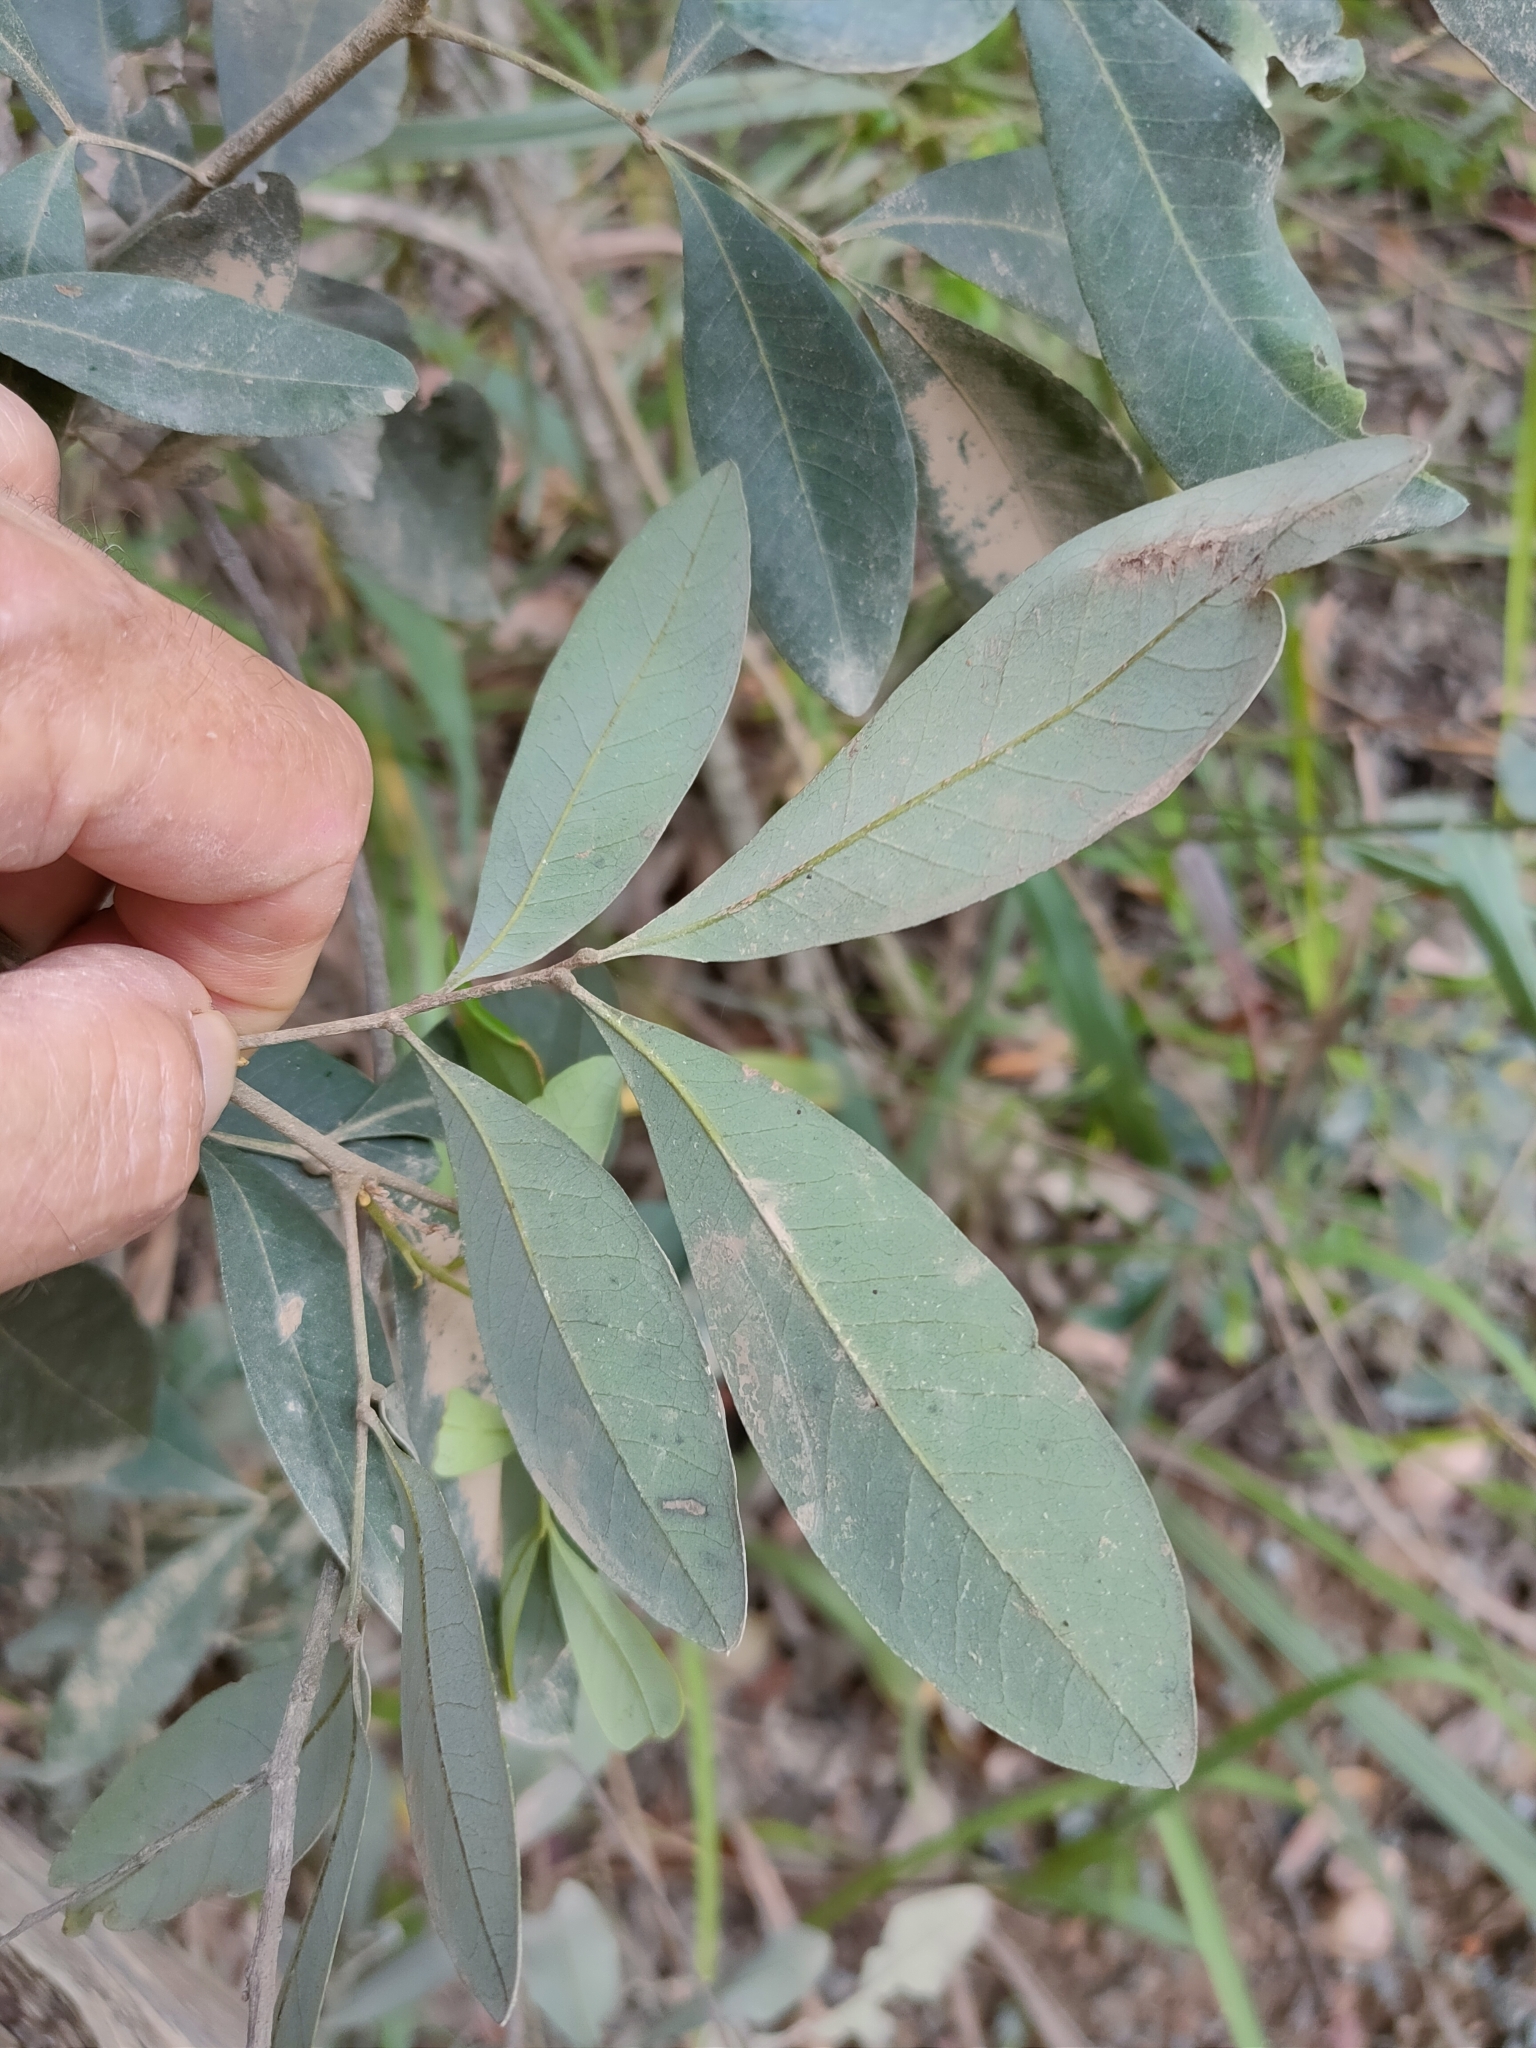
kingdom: Plantae
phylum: Tracheophyta
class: Magnoliopsida
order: Sapindales
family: Sapindaceae
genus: Guioa
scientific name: Guioa semiglauca
